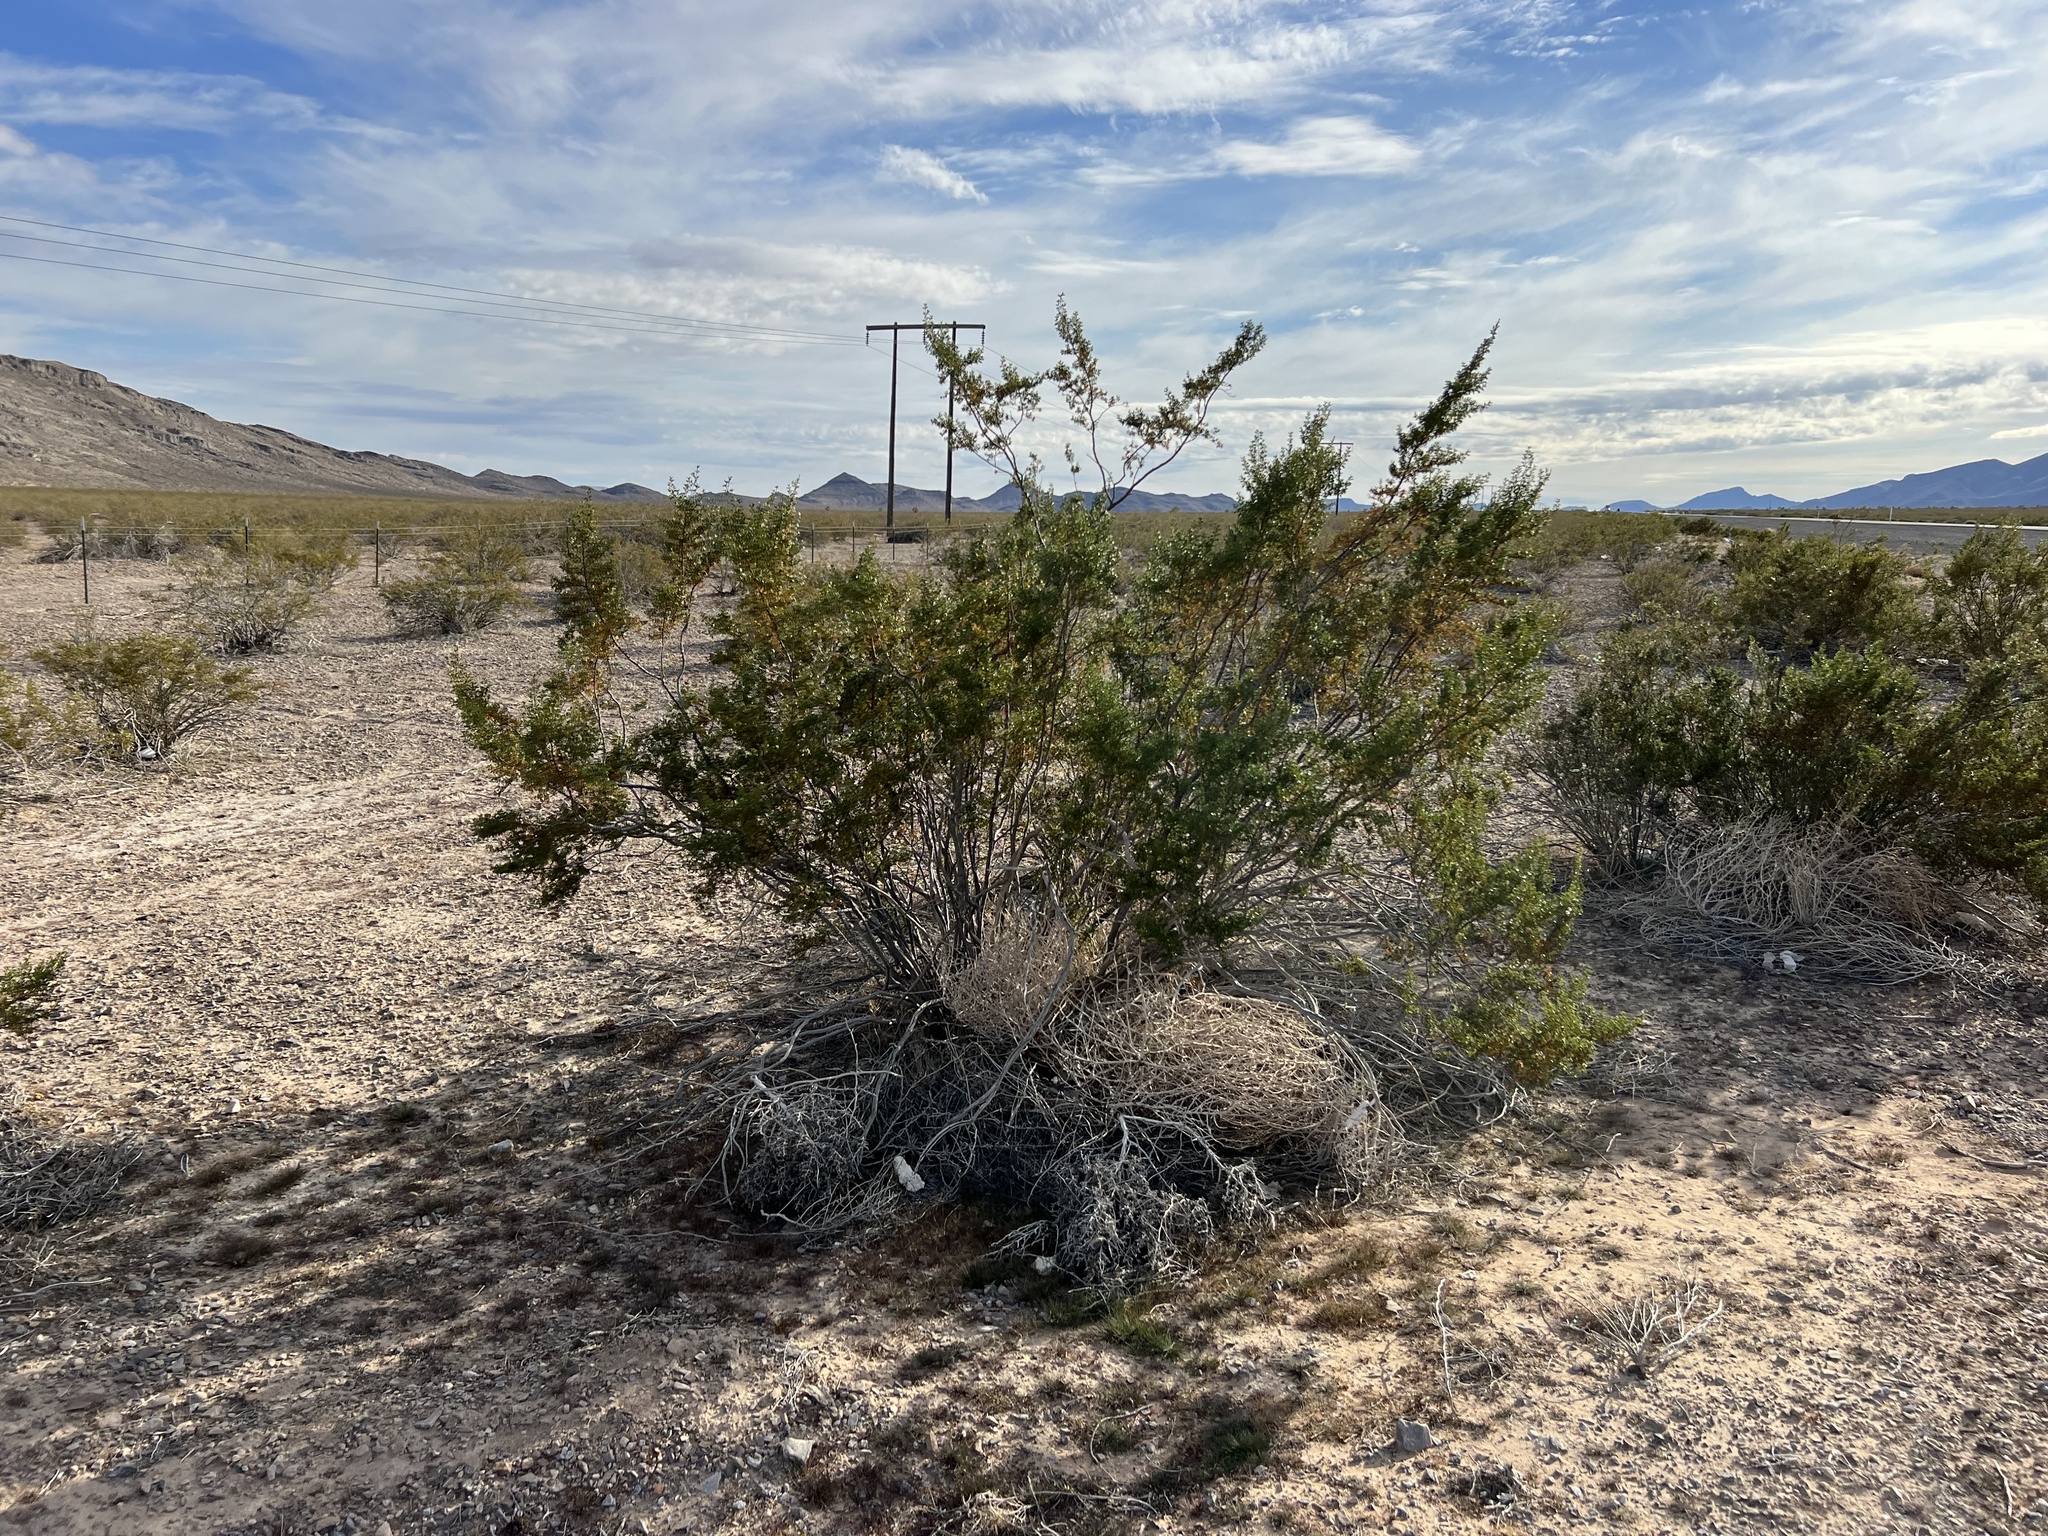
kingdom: Plantae
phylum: Tracheophyta
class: Magnoliopsida
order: Zygophyllales
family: Zygophyllaceae
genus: Larrea
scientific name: Larrea tridentata
